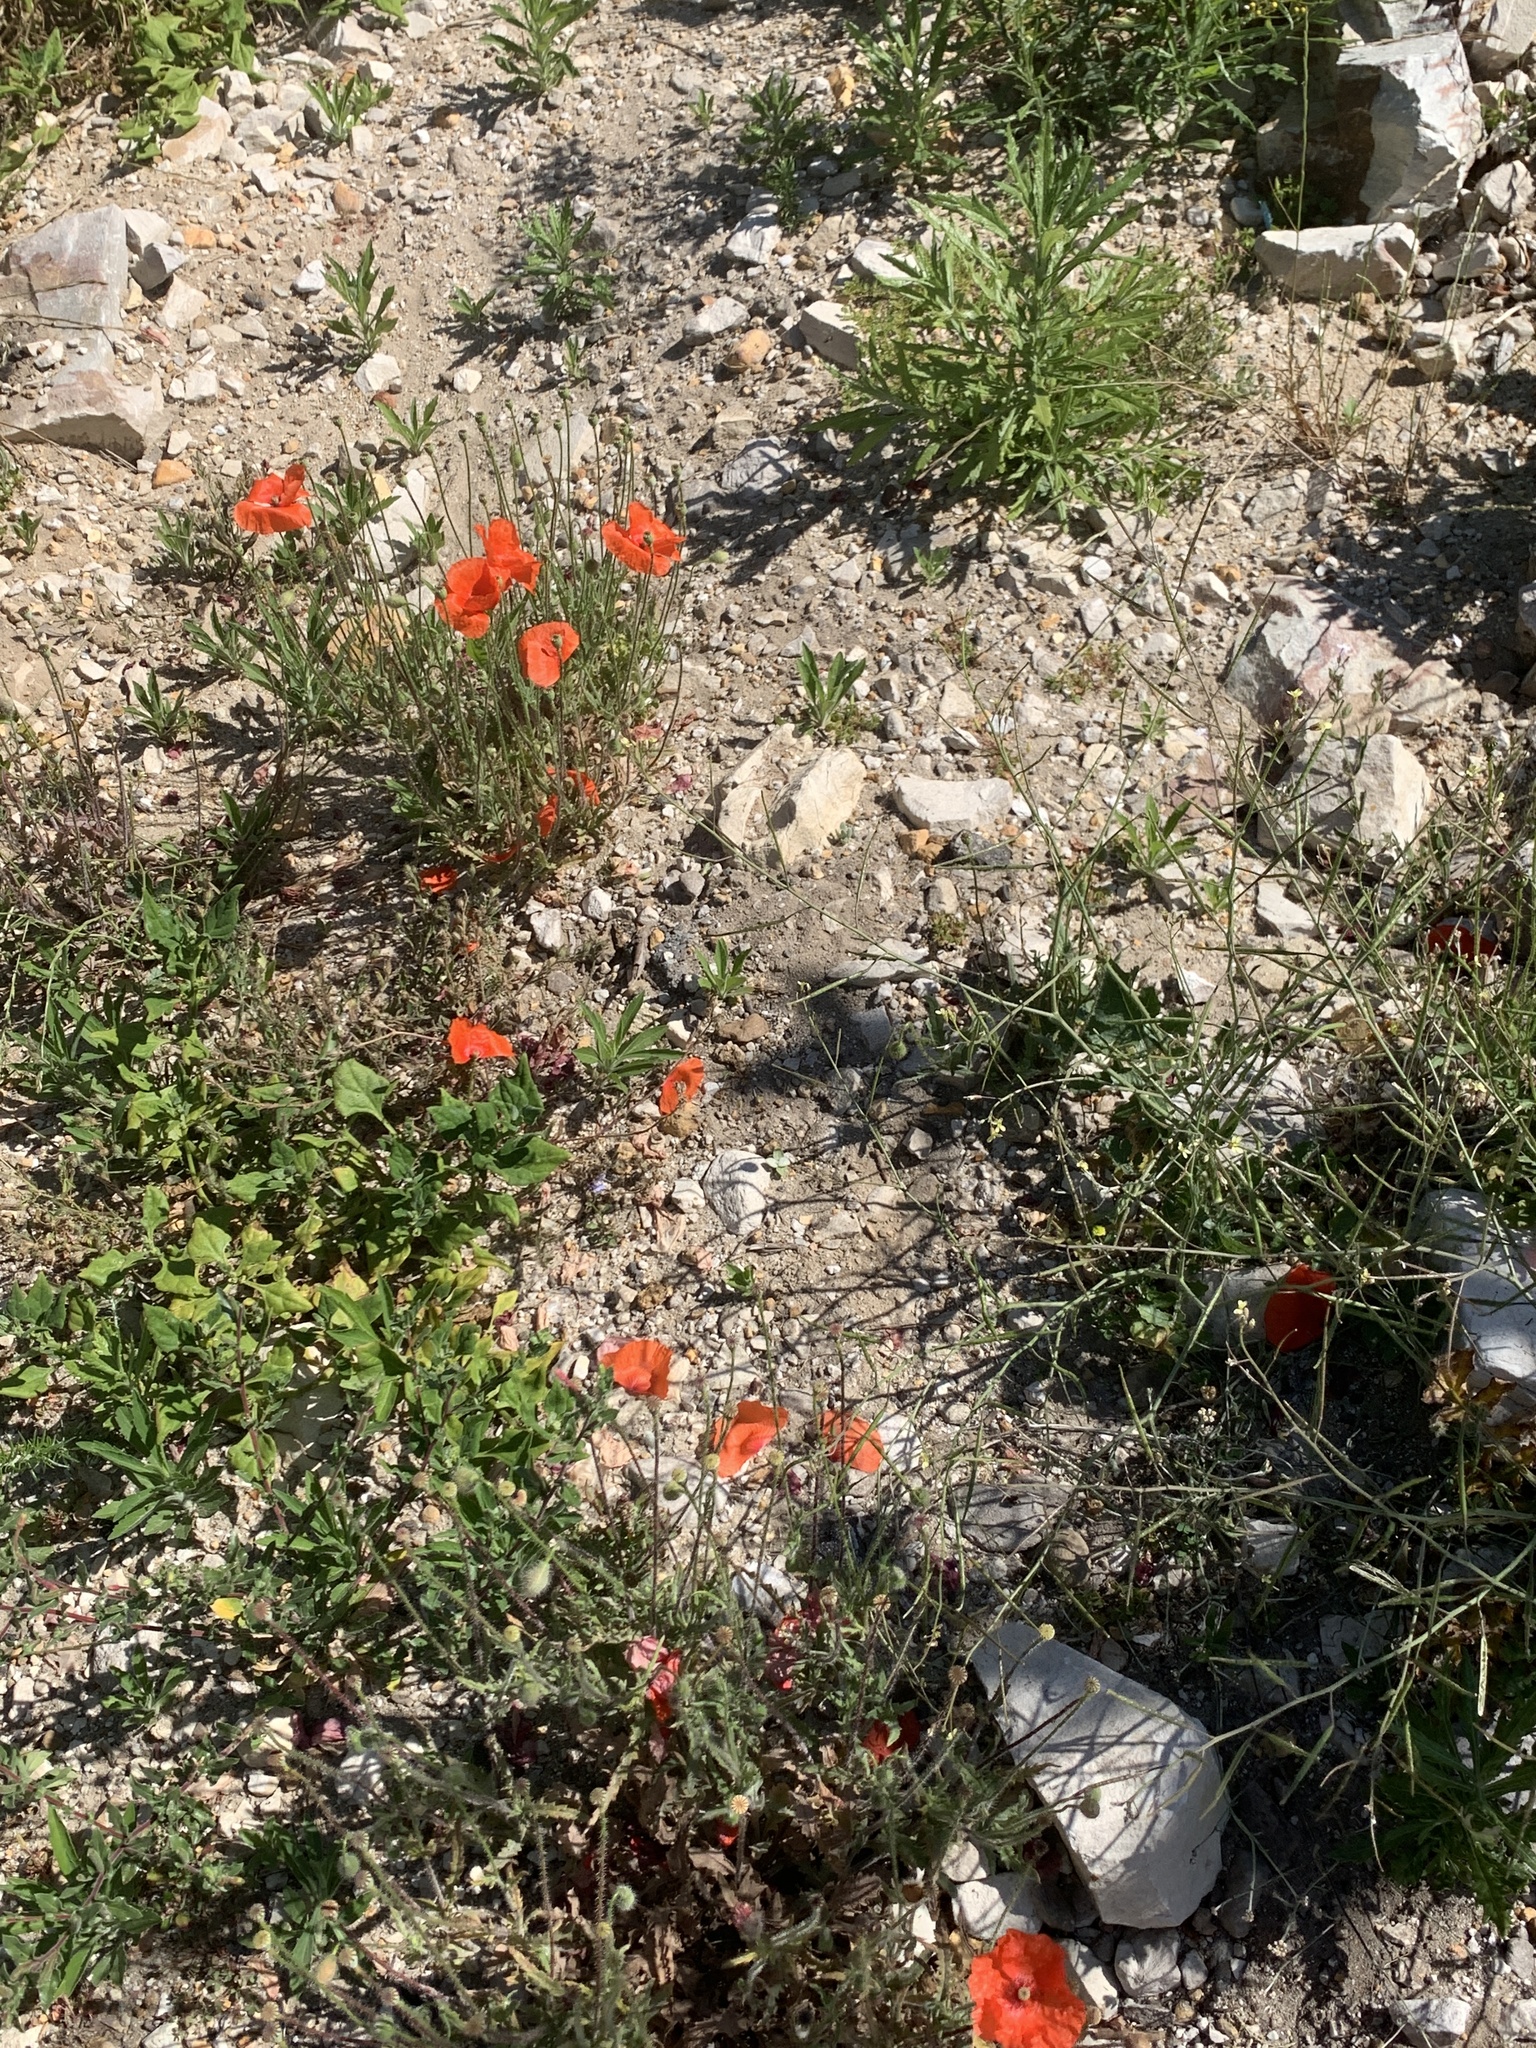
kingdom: Plantae
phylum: Tracheophyta
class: Magnoliopsida
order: Ranunculales
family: Papaveraceae
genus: Papaver
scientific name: Papaver rhoeas
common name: Corn poppy
